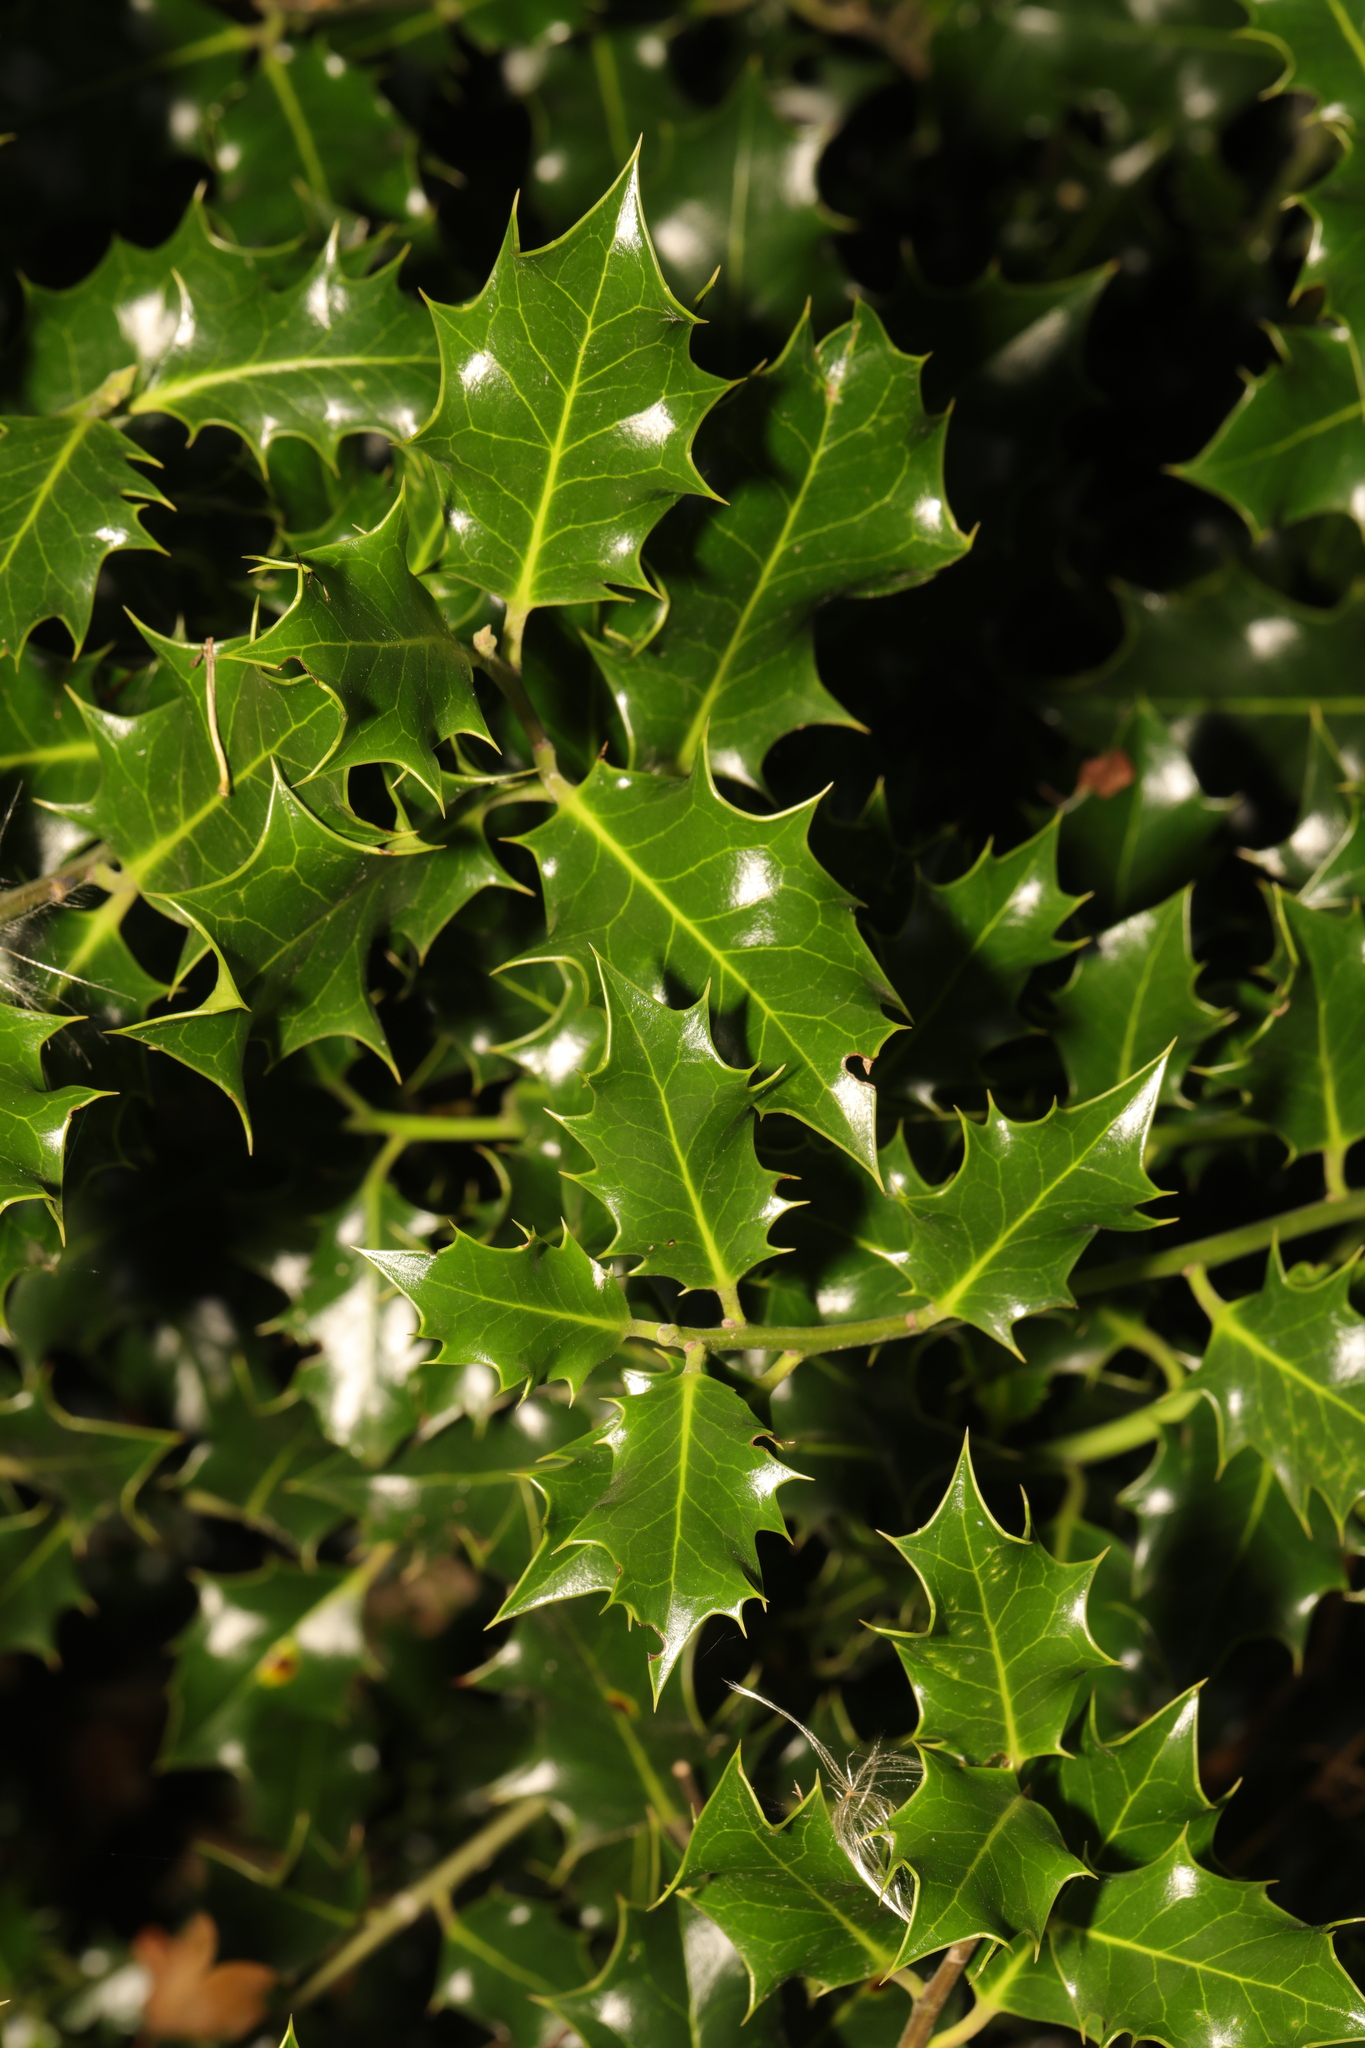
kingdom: Plantae
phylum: Tracheophyta
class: Magnoliopsida
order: Aquifoliales
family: Aquifoliaceae
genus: Ilex
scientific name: Ilex aquifolium
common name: English holly
